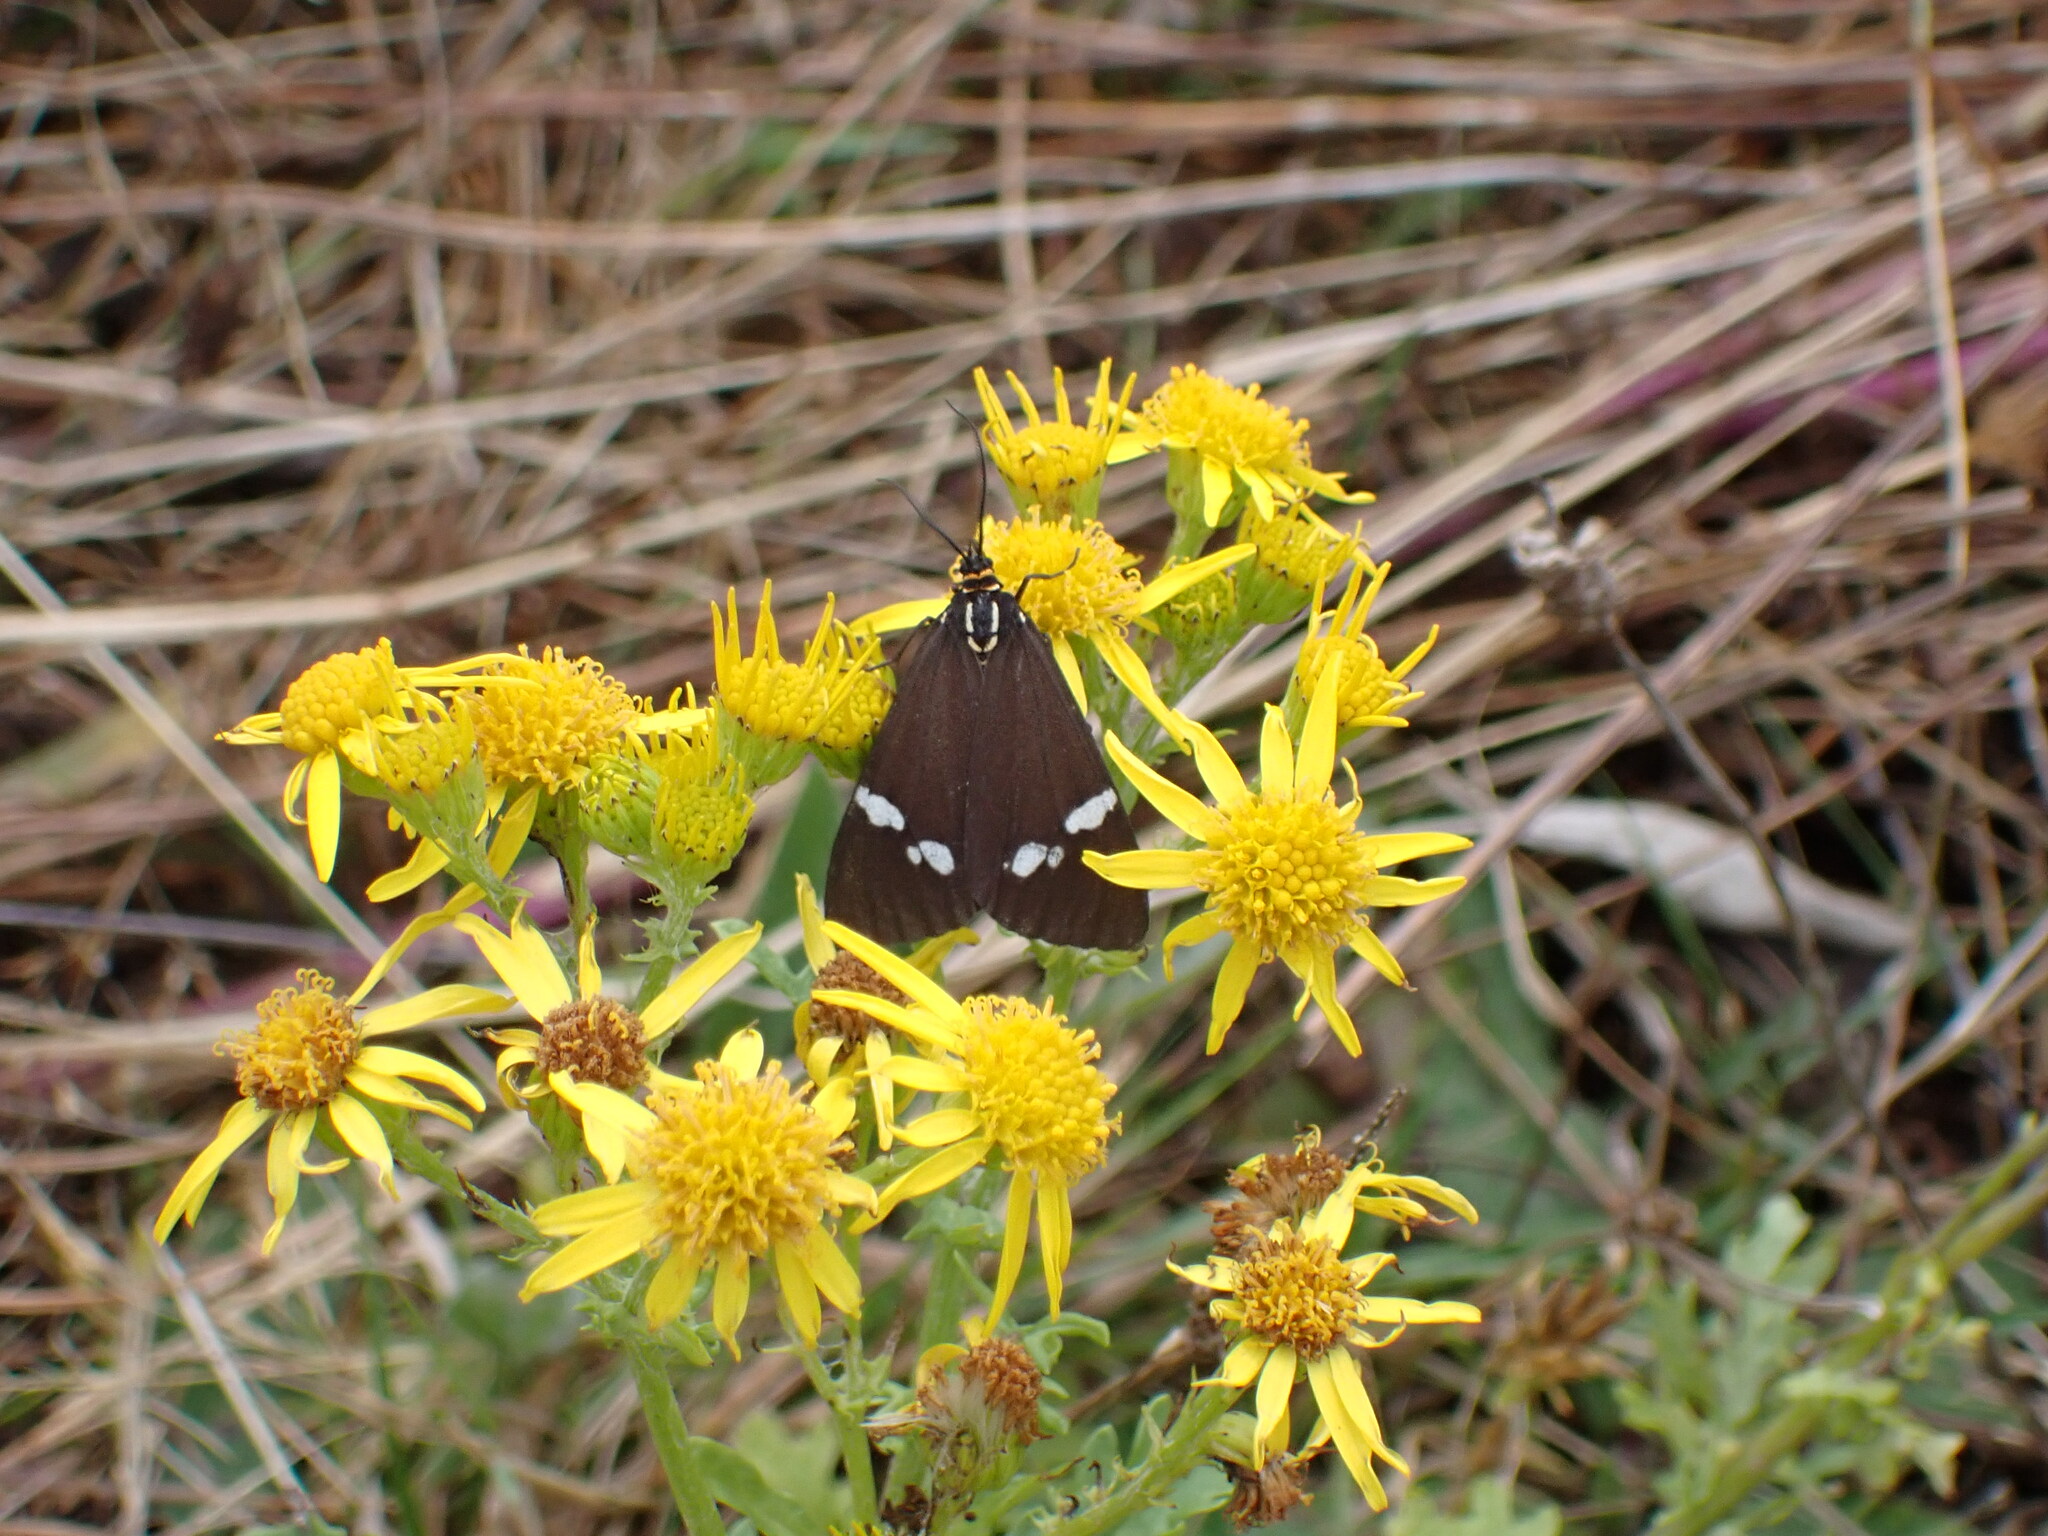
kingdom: Animalia
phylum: Arthropoda
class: Insecta
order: Lepidoptera
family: Erebidae
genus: Nyctemera
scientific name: Nyctemera annulatum
